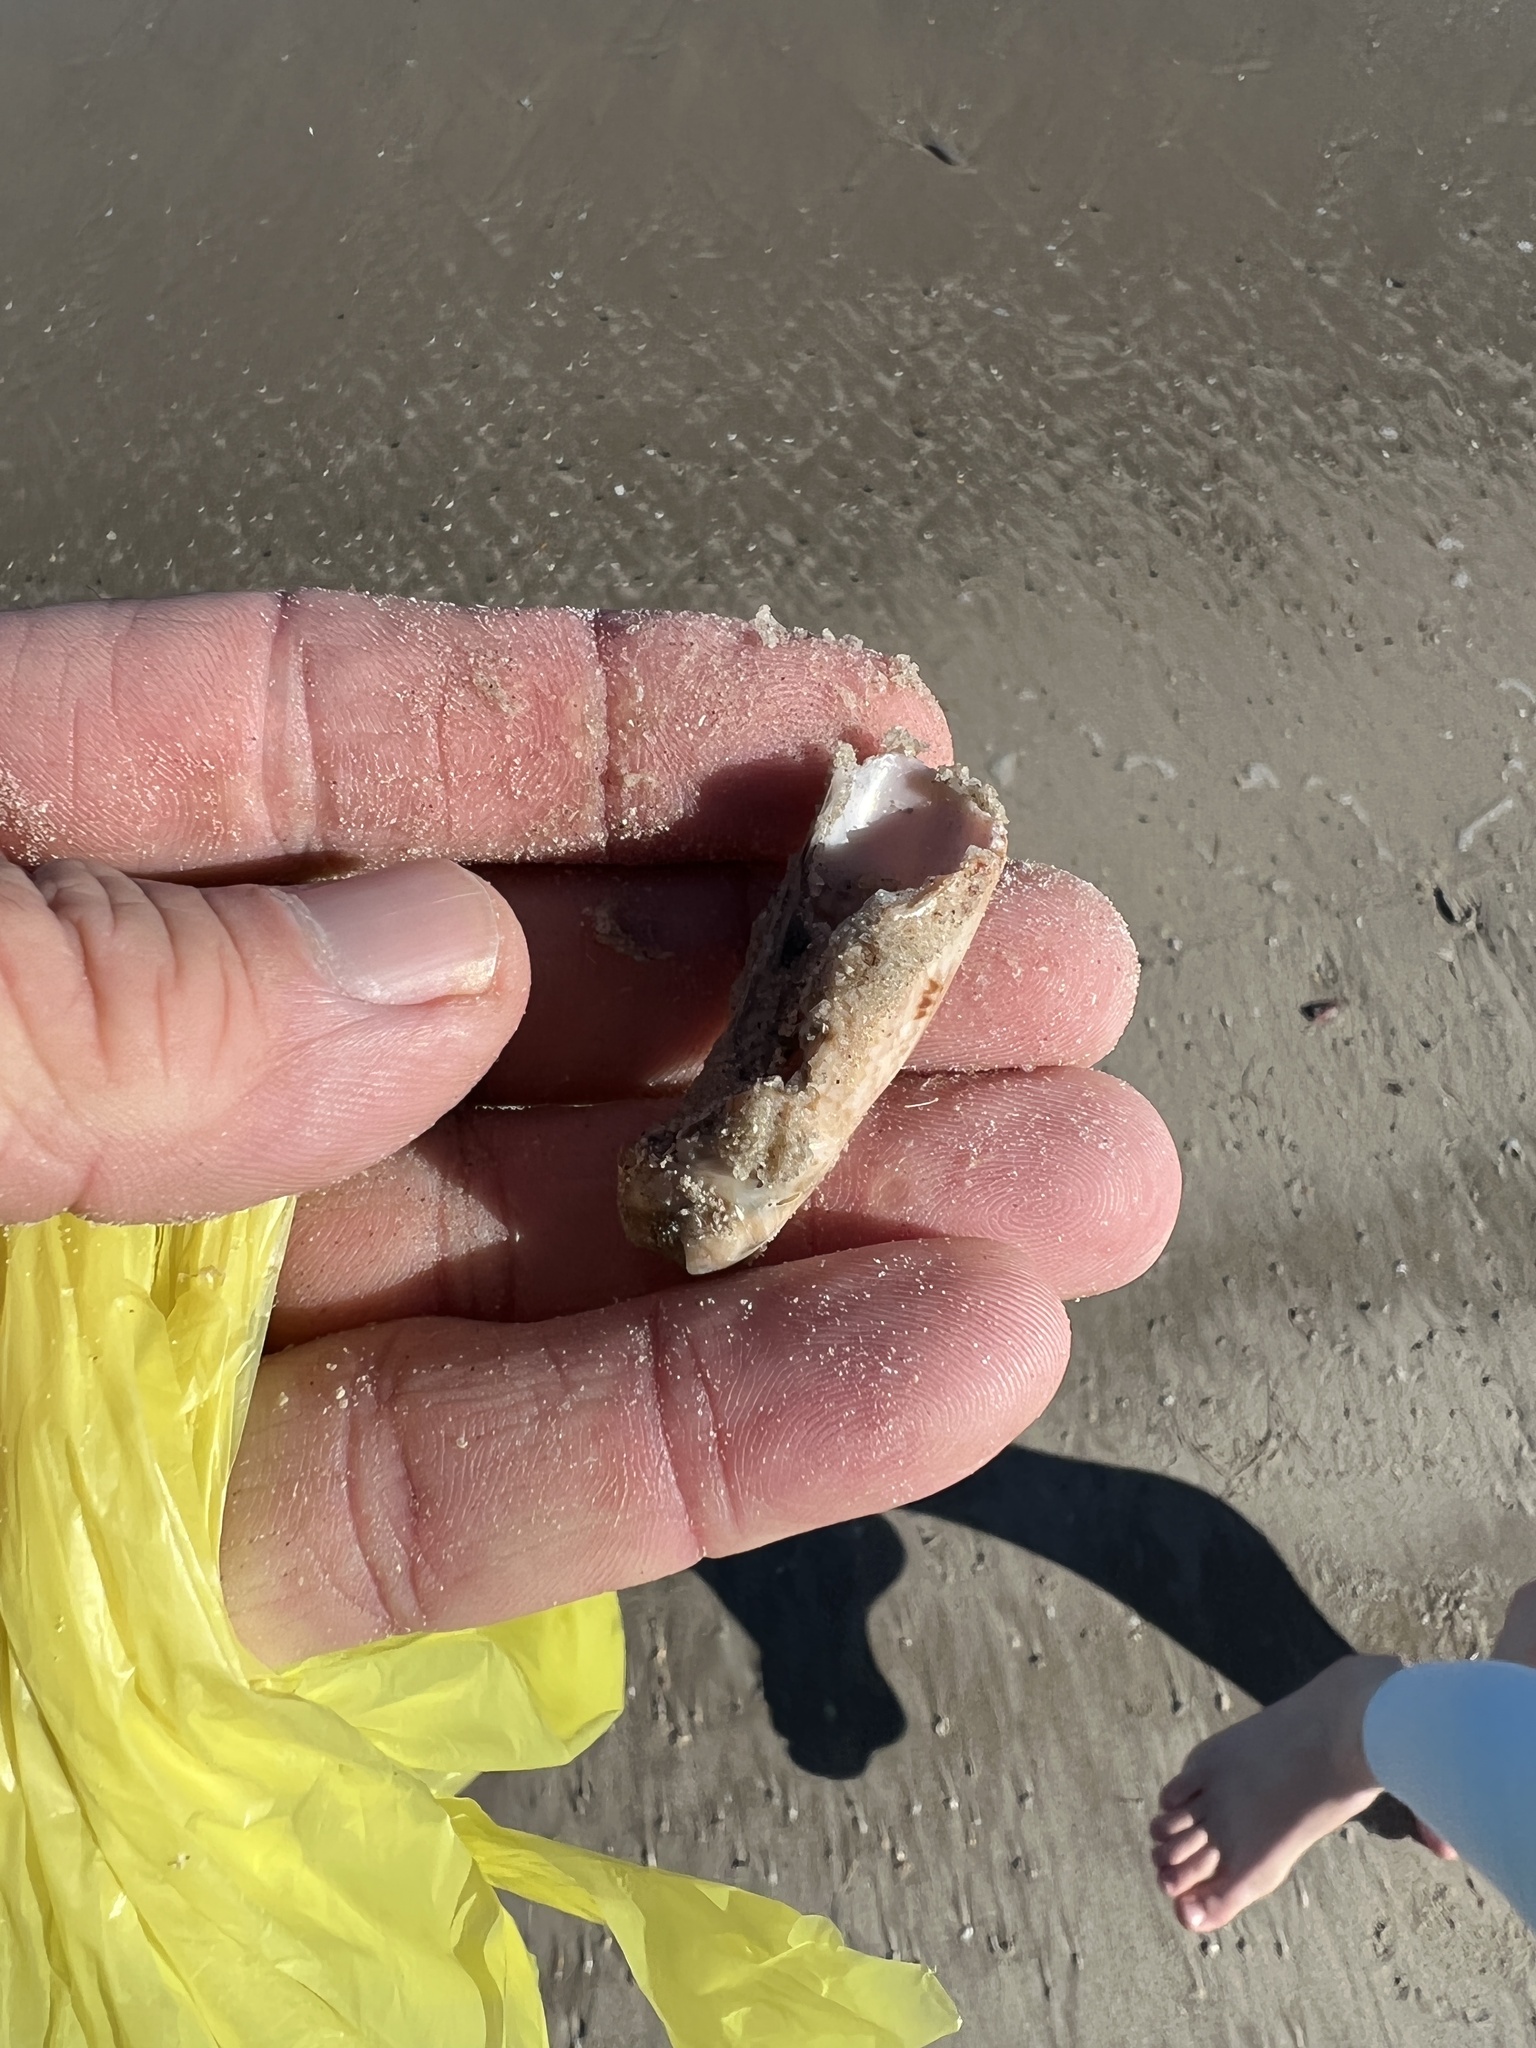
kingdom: Animalia
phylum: Mollusca
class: Gastropoda
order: Neogastropoda
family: Olividae
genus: Oliva
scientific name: Oliva sayana
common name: Lettered olive
